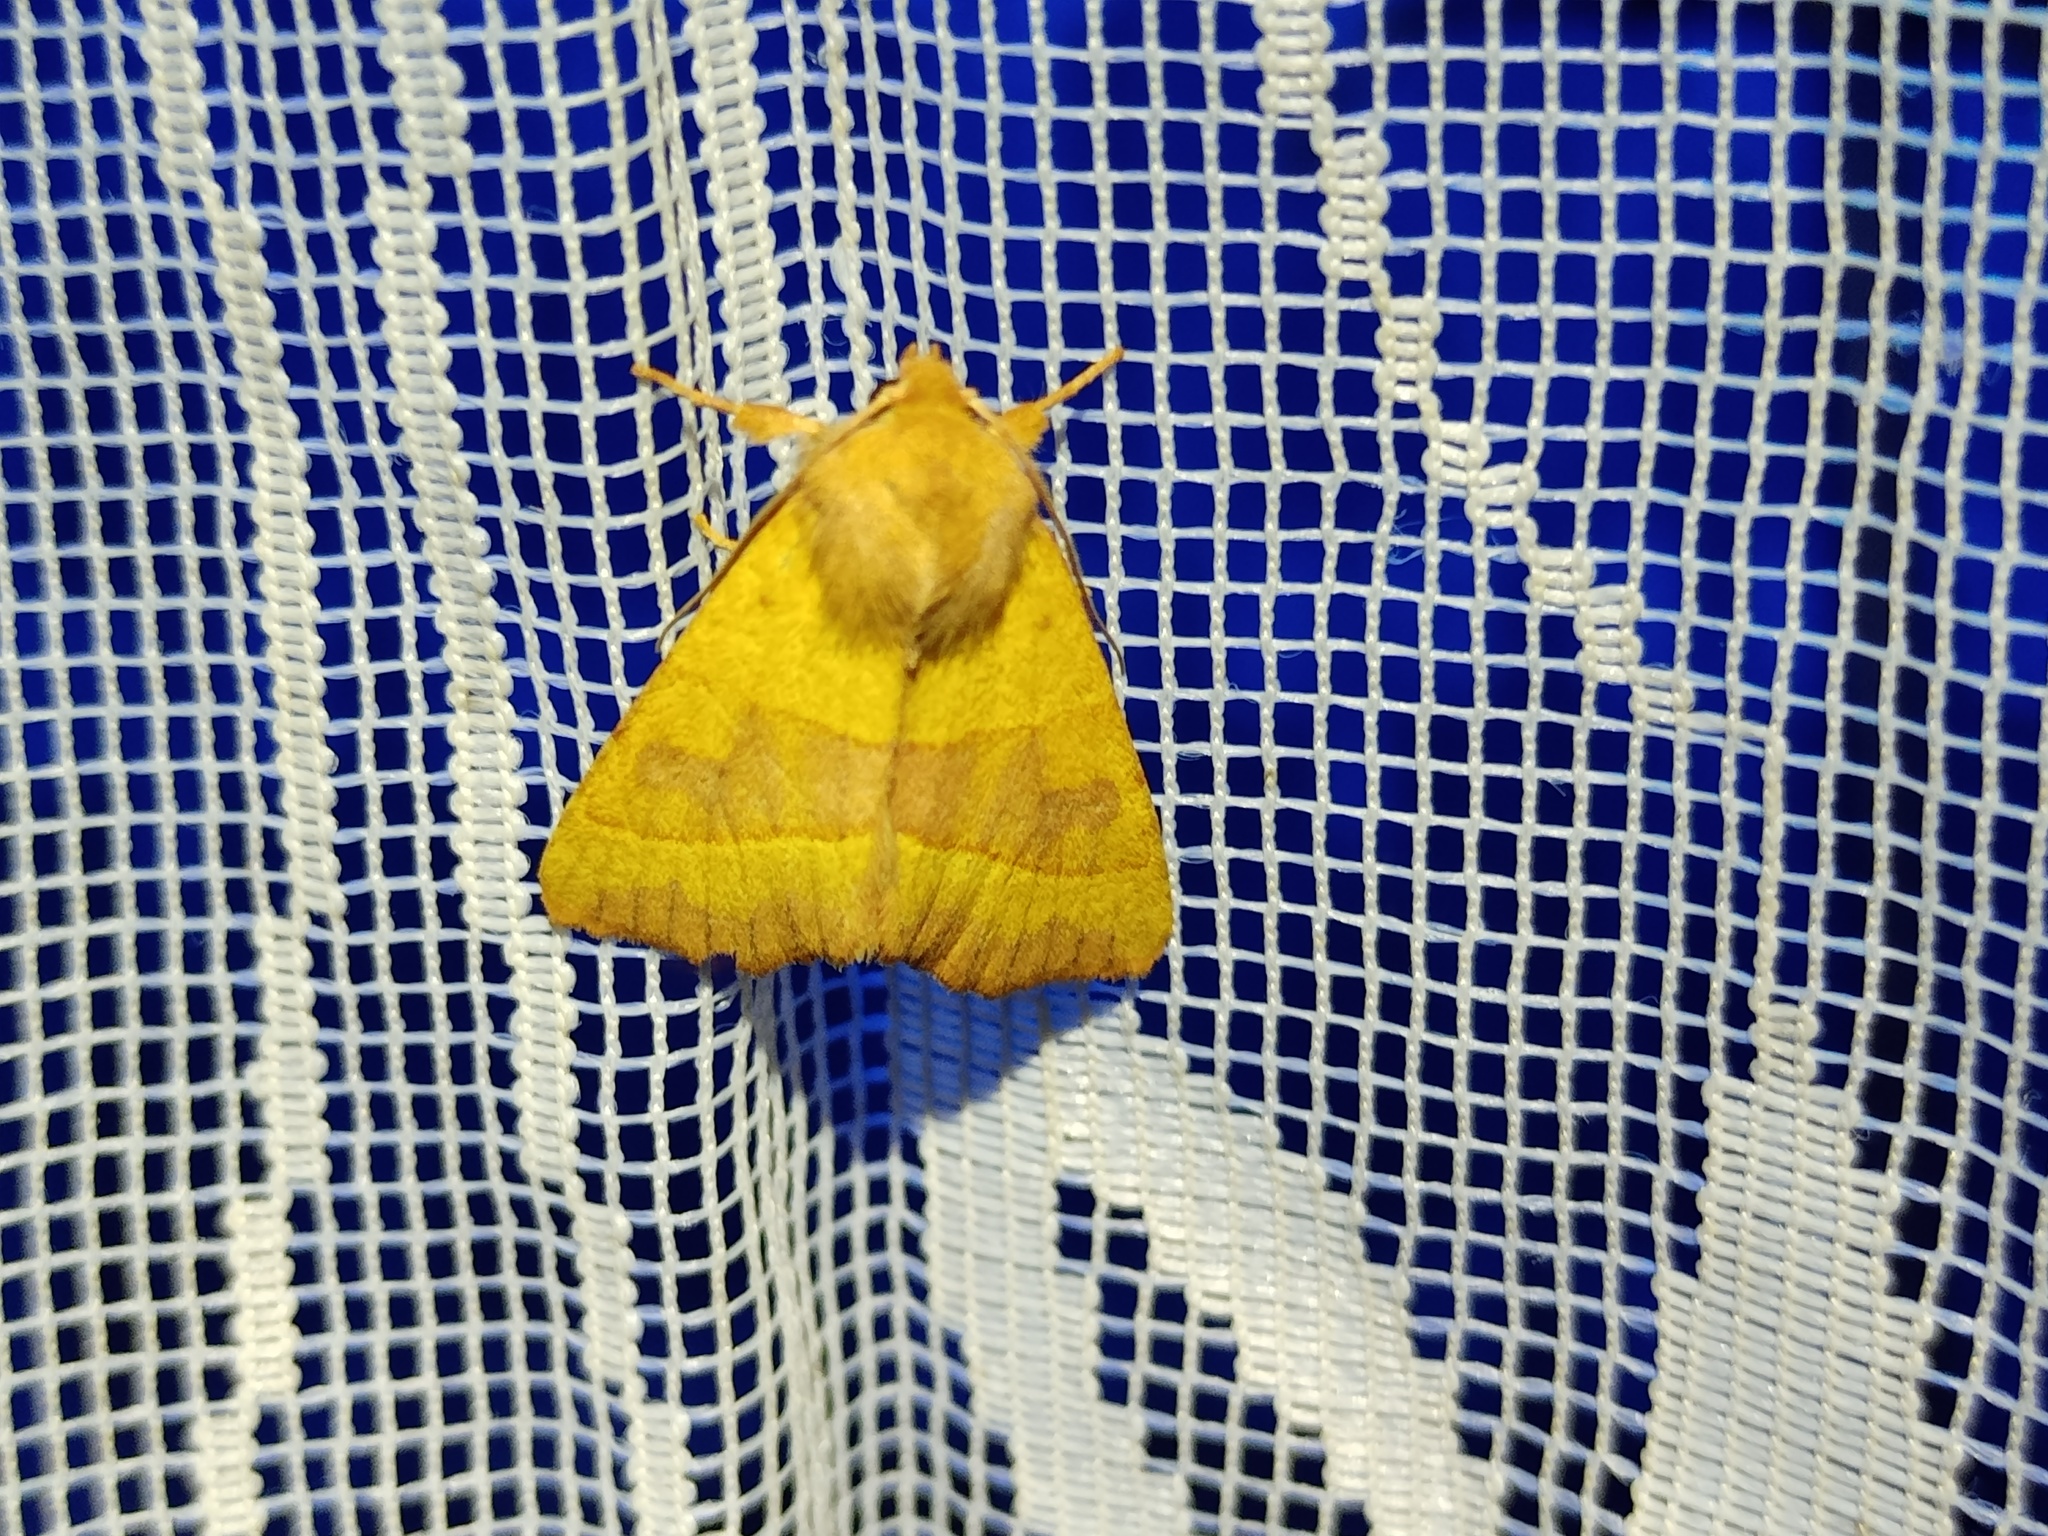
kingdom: Animalia
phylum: Arthropoda
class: Insecta
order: Lepidoptera
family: Noctuidae
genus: Atethmia
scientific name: Atethmia centrago
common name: Centre-barred sallow
